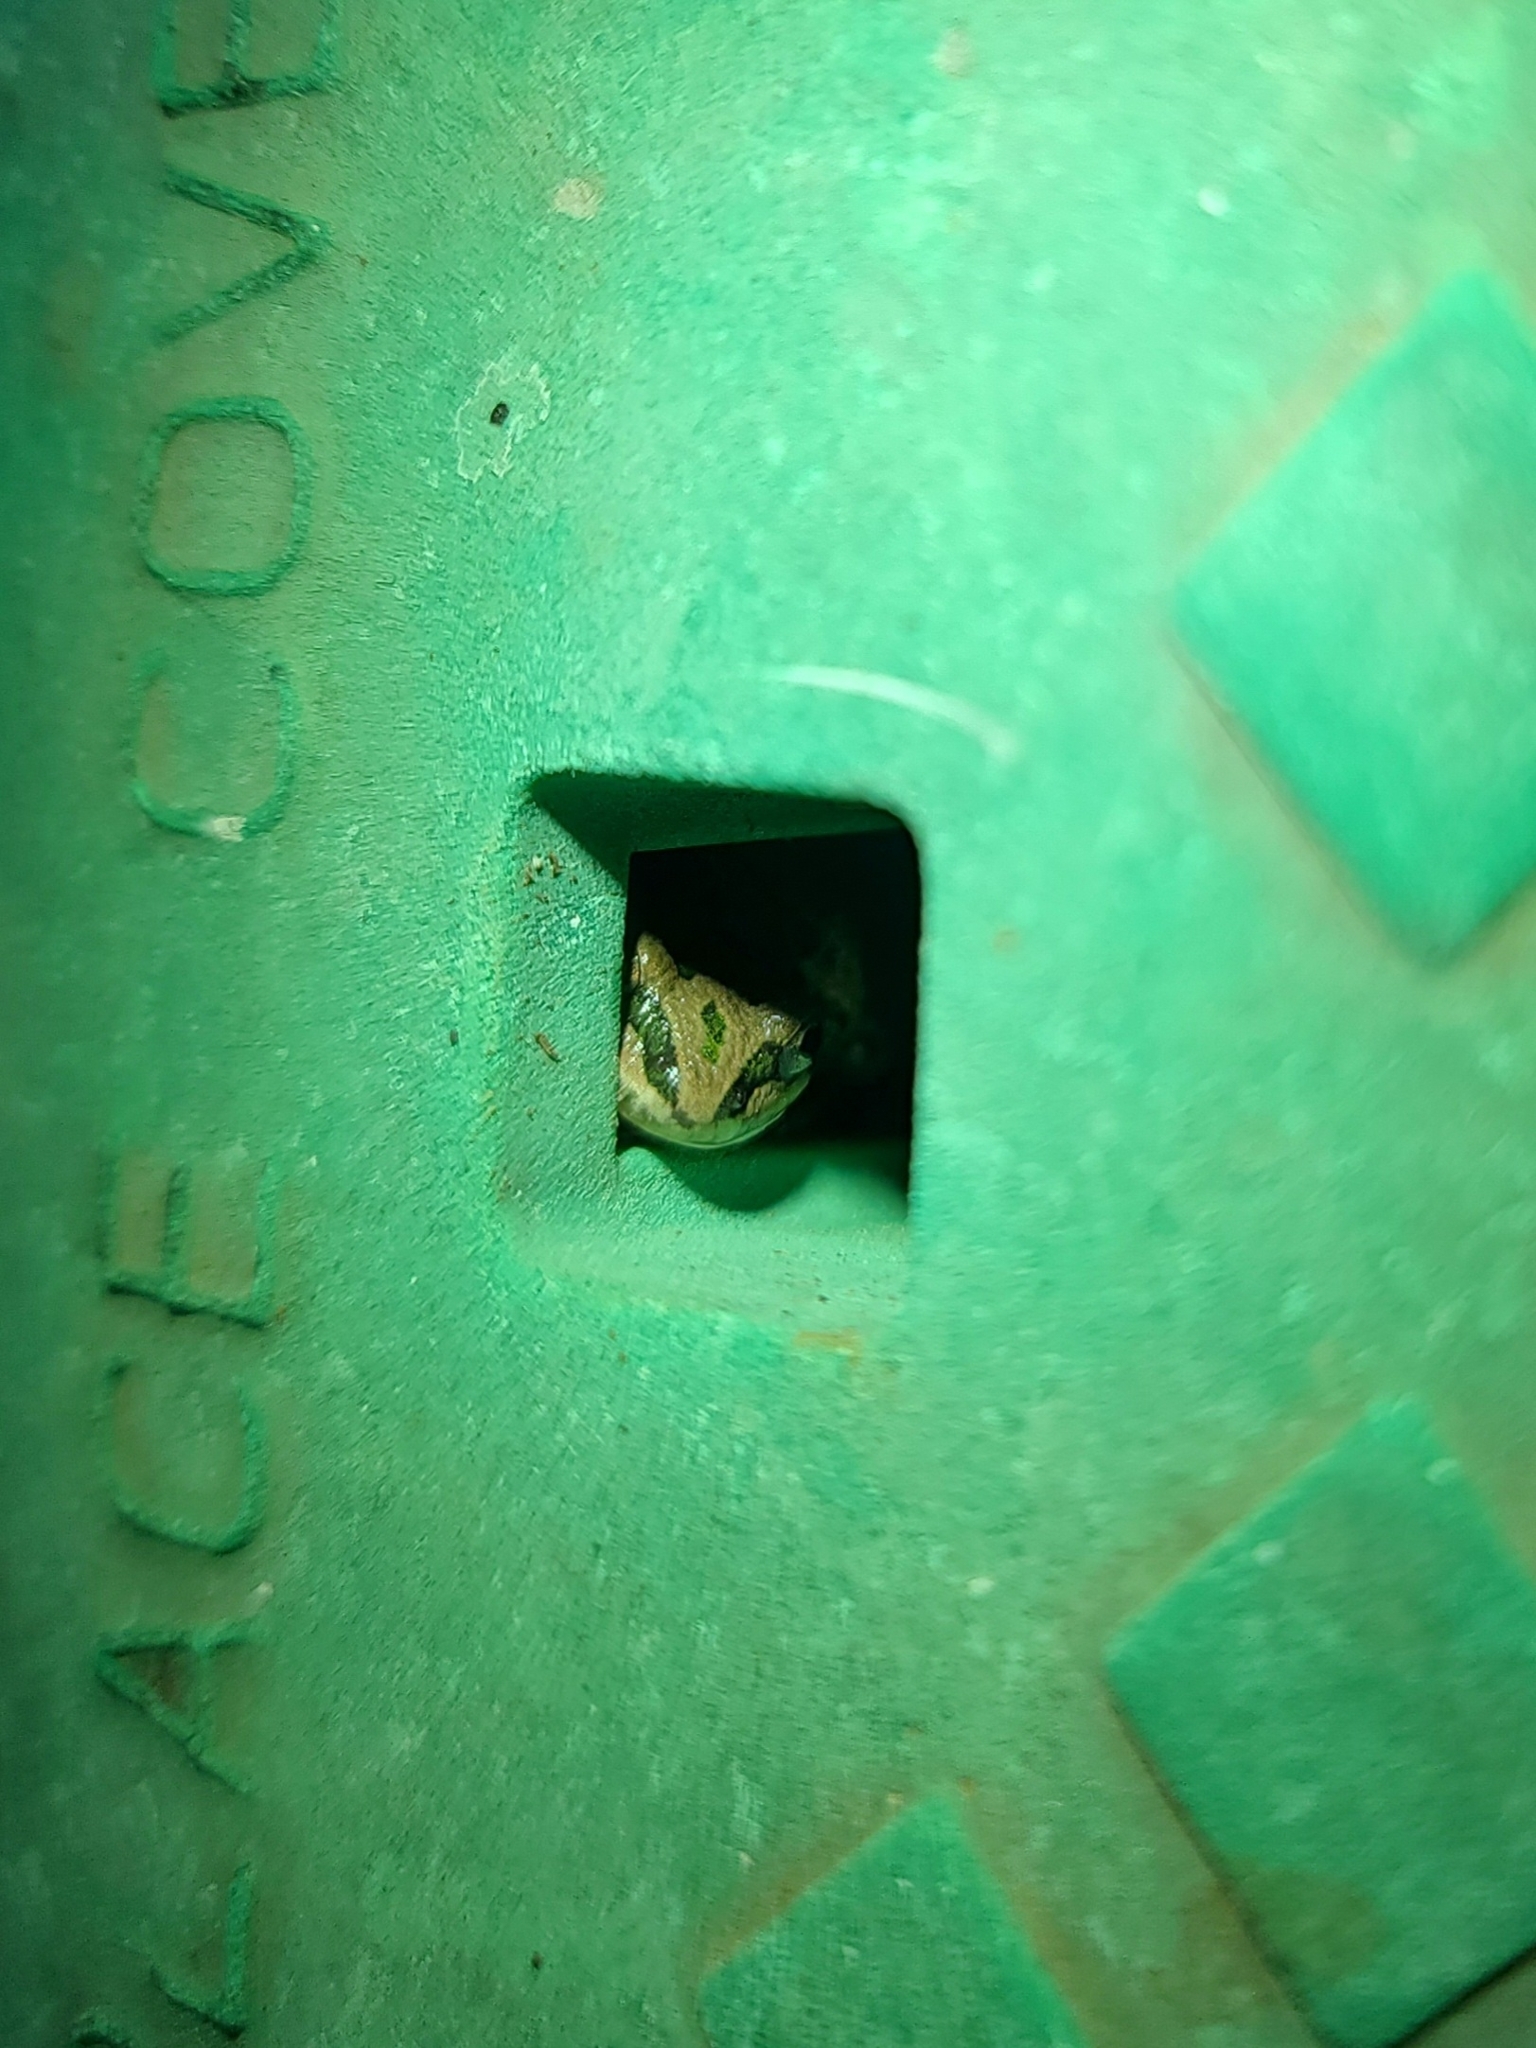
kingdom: Animalia
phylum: Chordata
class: Amphibia
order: Anura
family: Hylidae
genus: Pseudacris
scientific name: Pseudacris clarkii
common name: Spotted chorus frog
